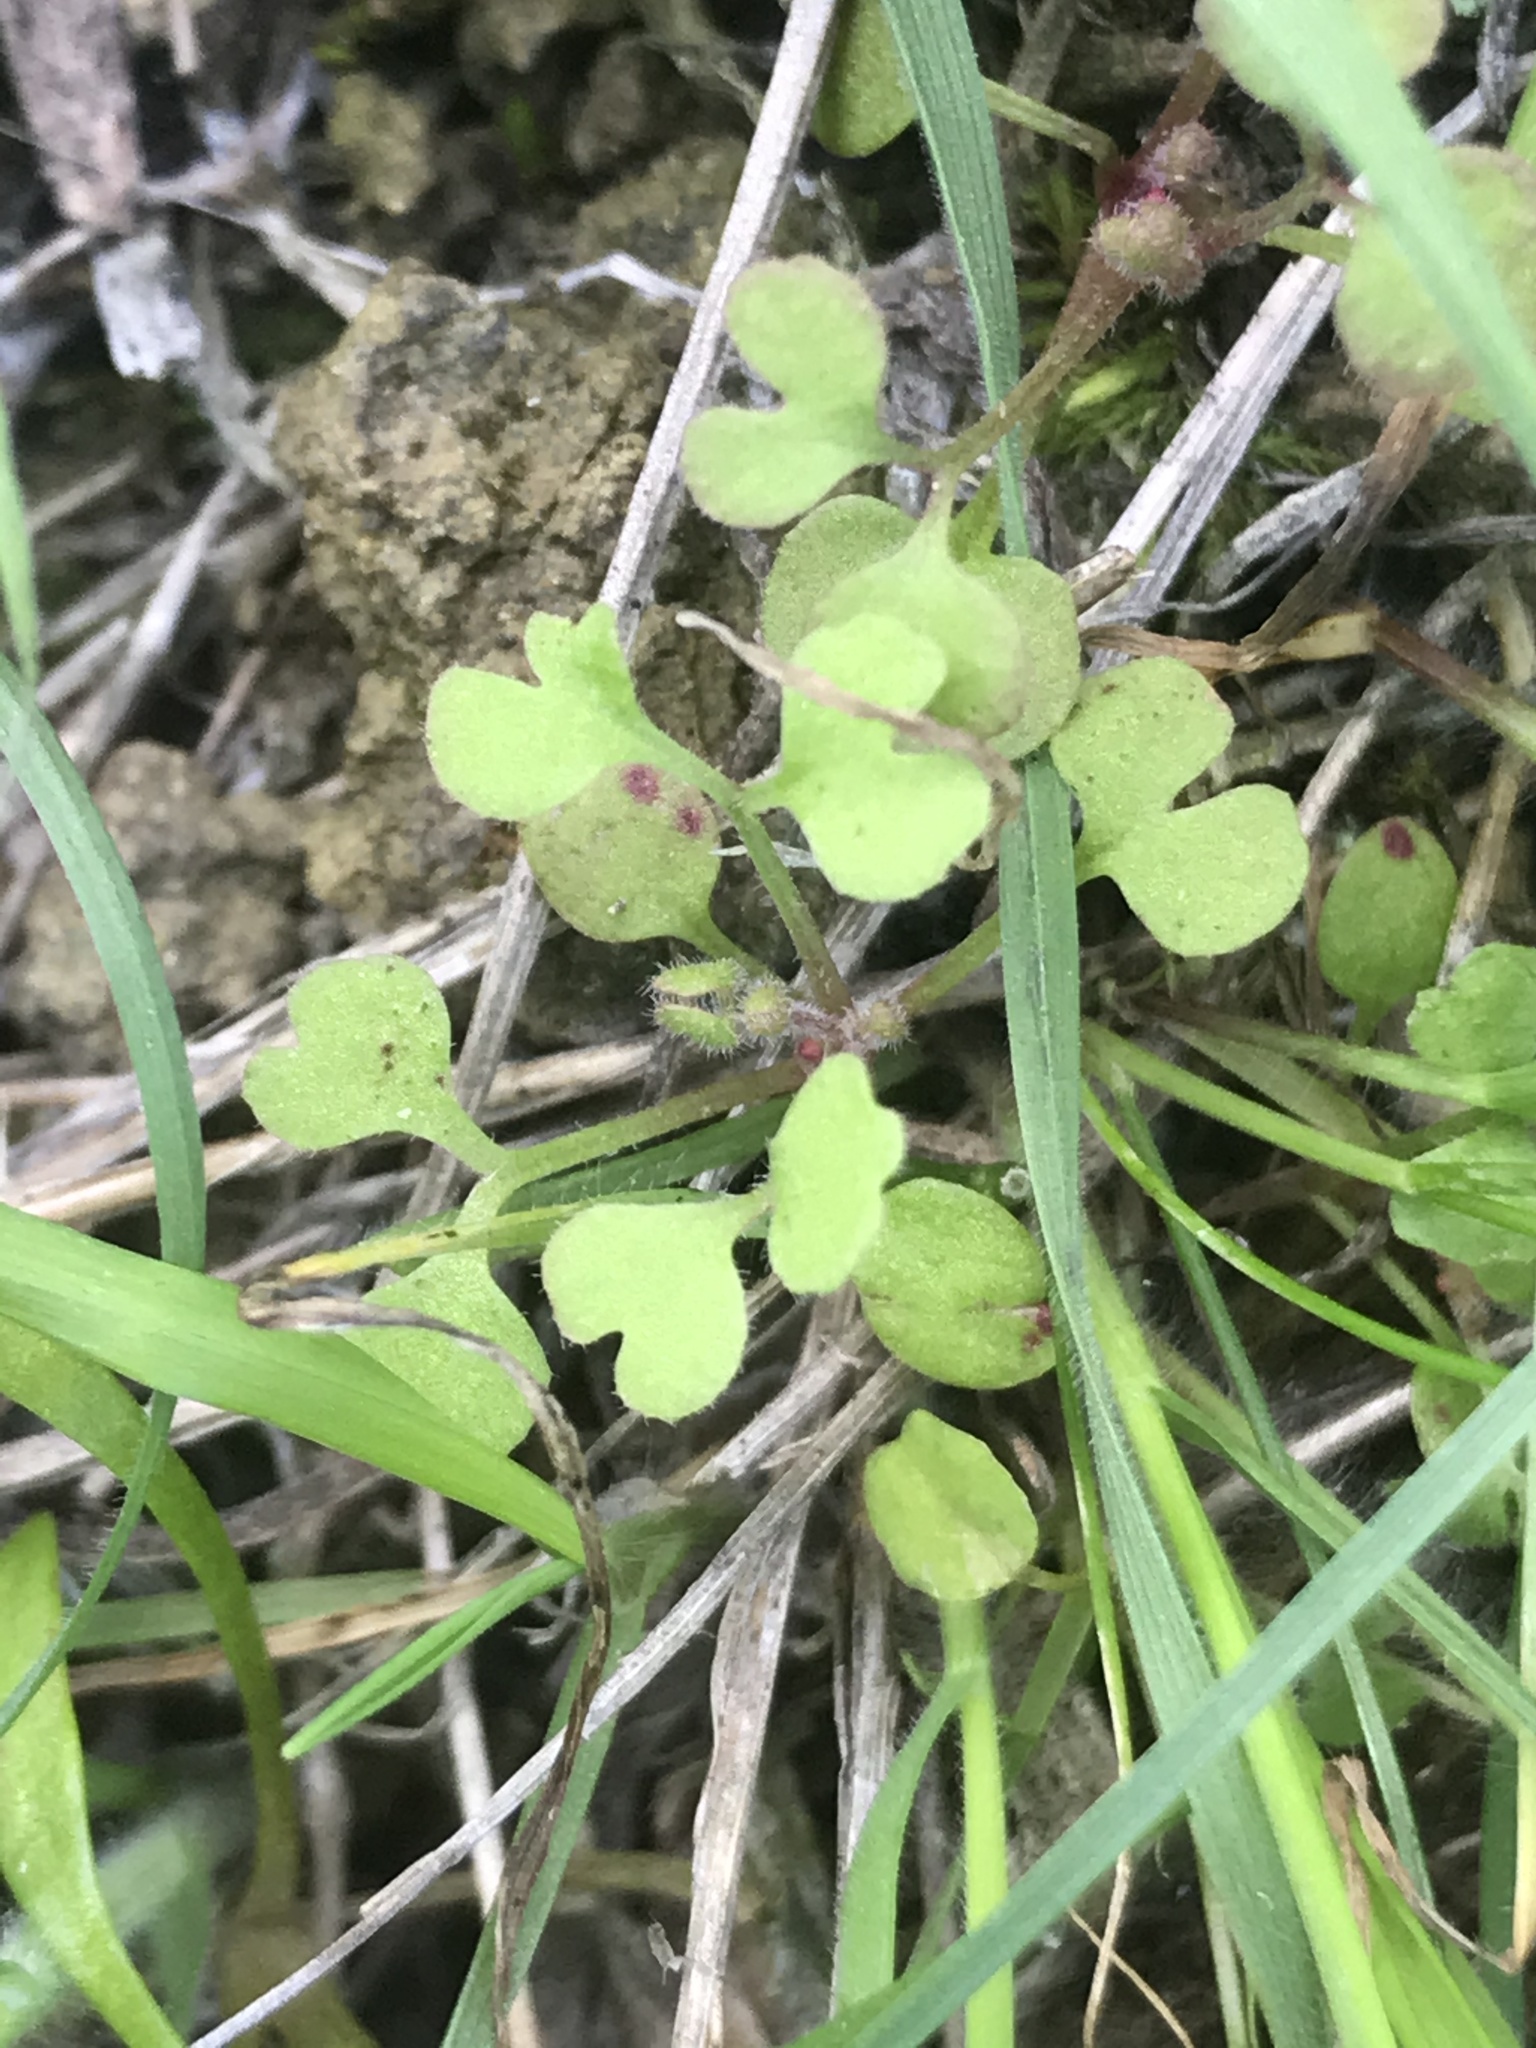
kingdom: Plantae
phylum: Tracheophyta
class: Magnoliopsida
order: Caryophyllales
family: Polygonaceae
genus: Pterostegia
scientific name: Pterostegia drymarioides
